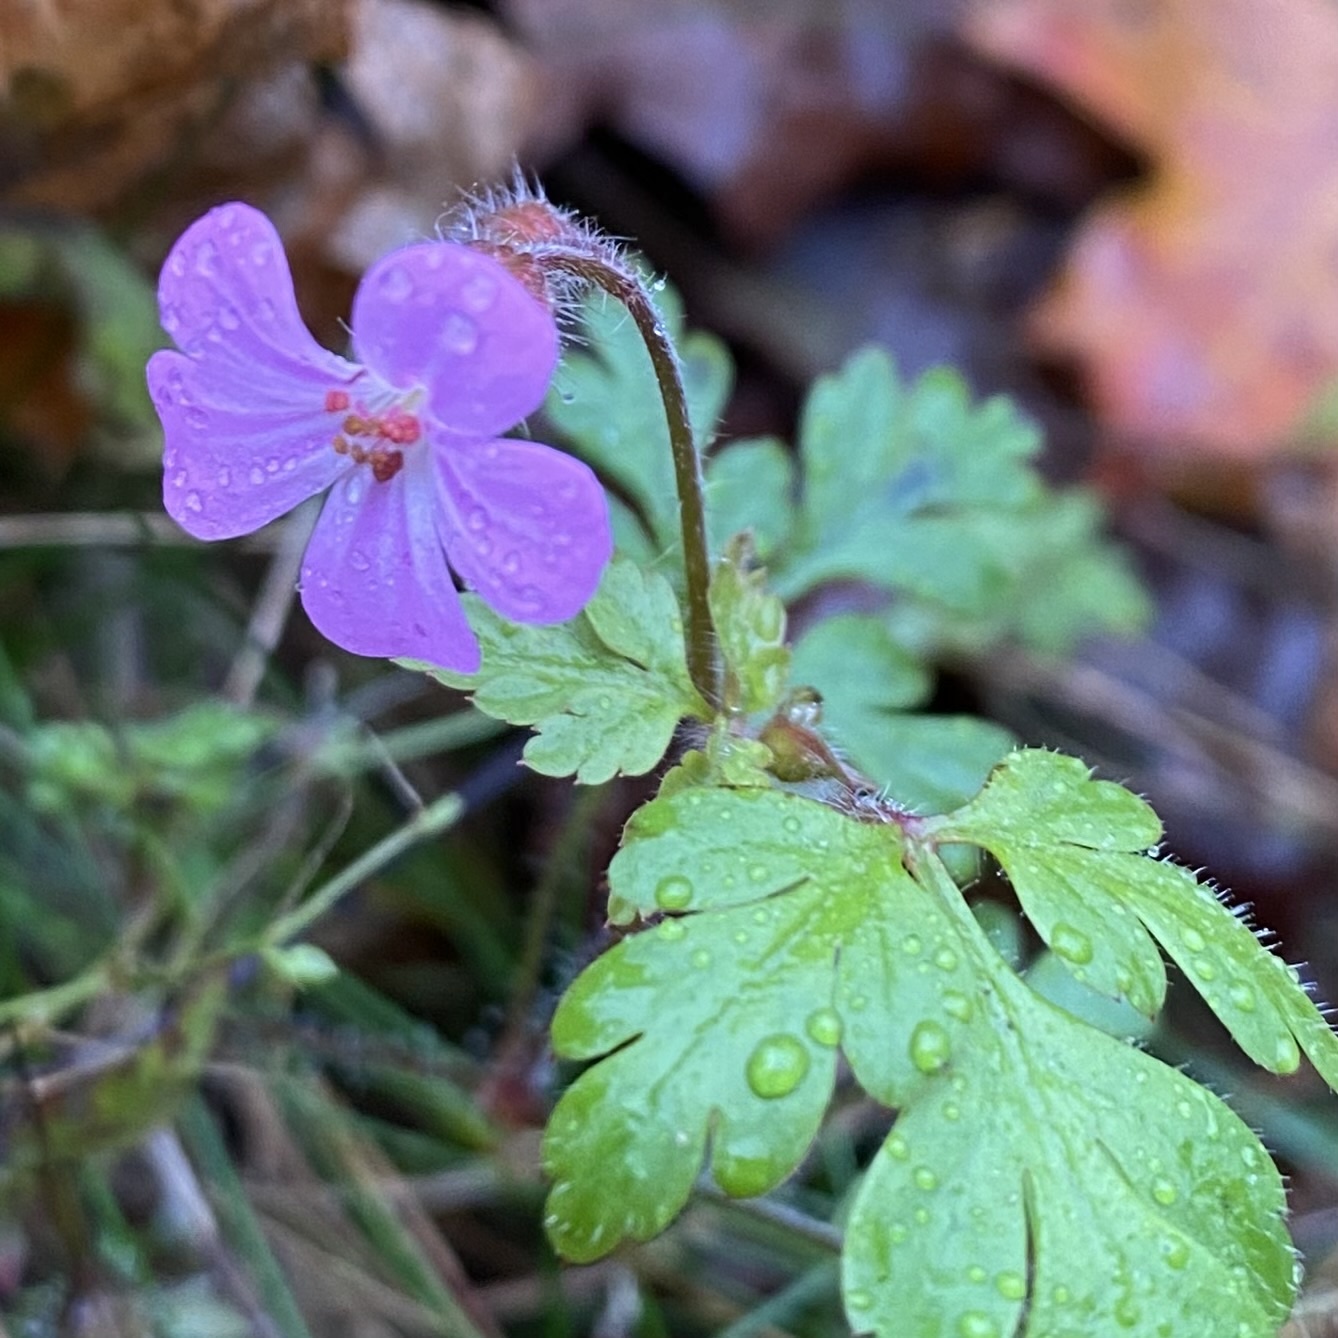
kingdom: Plantae
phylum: Tracheophyta
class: Magnoliopsida
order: Geraniales
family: Geraniaceae
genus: Geranium
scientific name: Geranium robertianum
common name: Herb-robert
